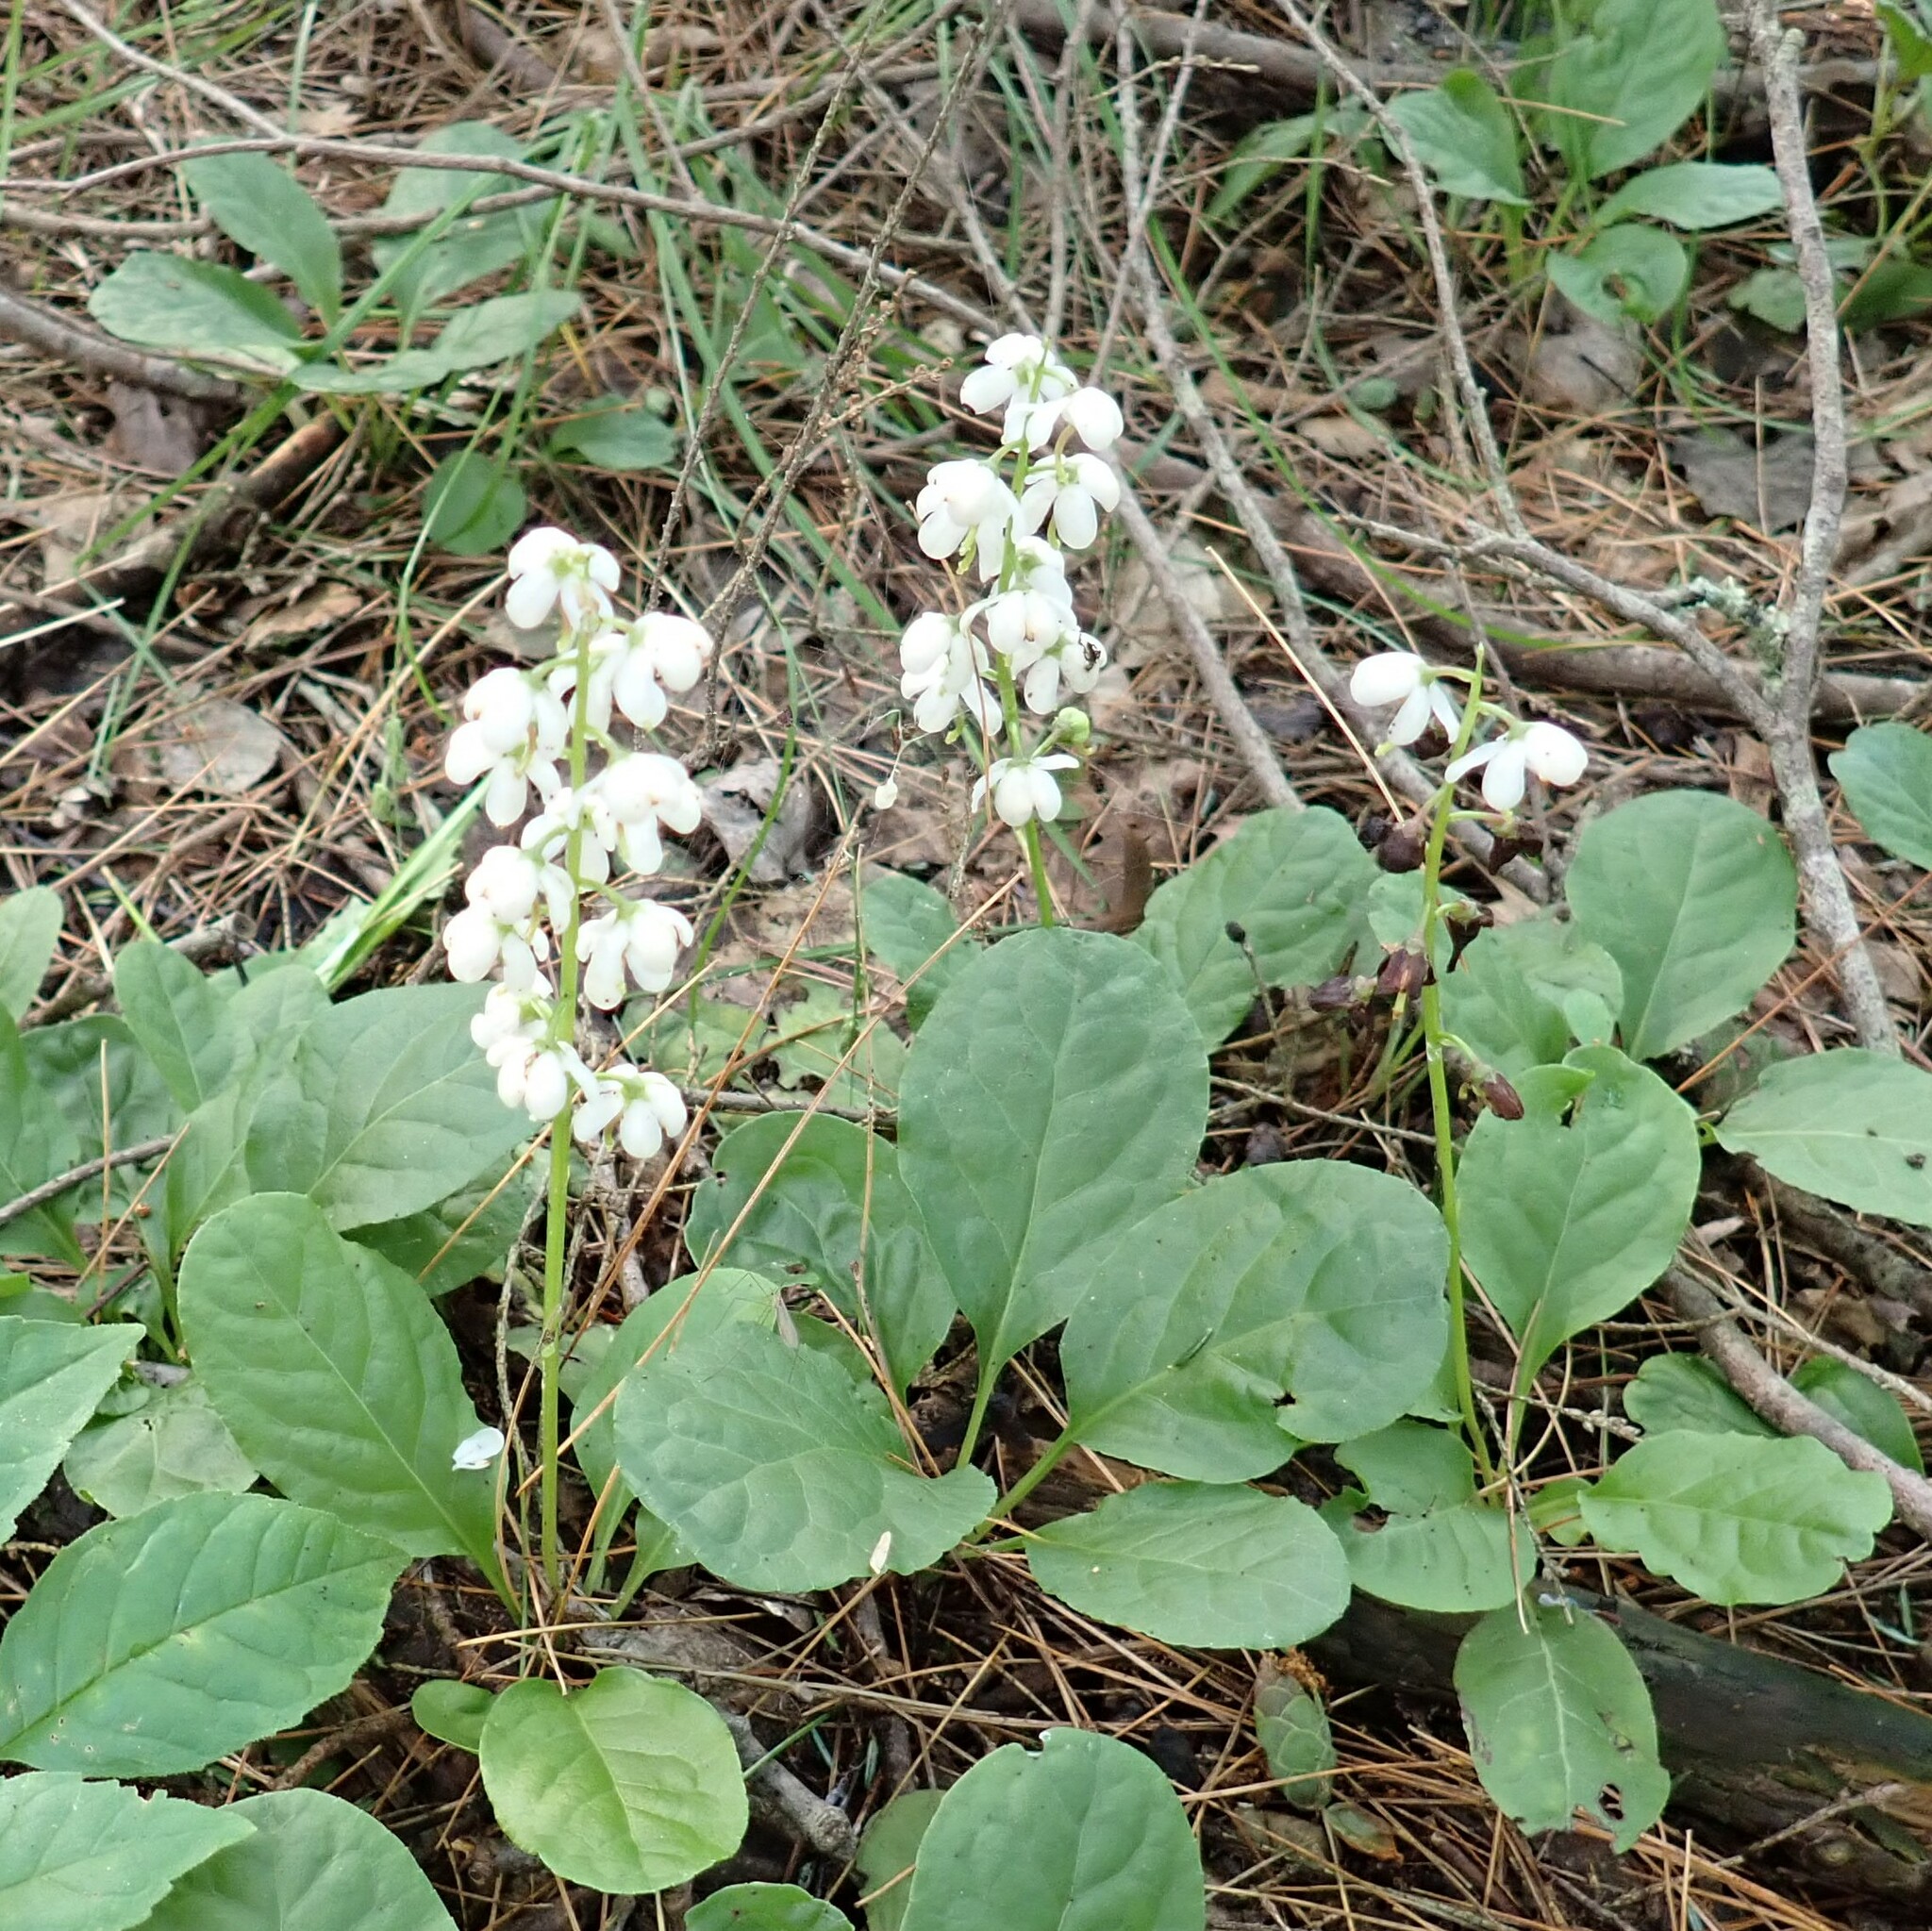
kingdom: Plantae
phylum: Tracheophyta
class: Magnoliopsida
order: Ericales
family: Ericaceae
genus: Pyrola
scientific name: Pyrola elliptica
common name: Shinleaf
